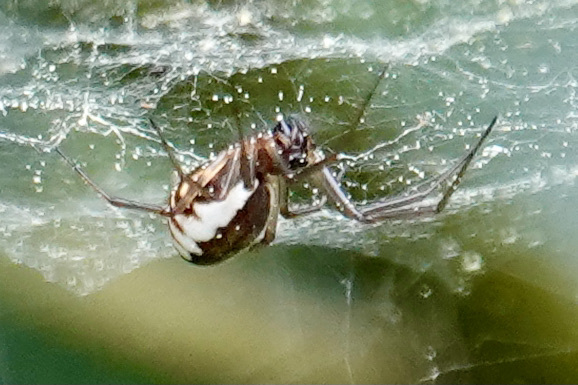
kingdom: Animalia
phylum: Arthropoda
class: Arachnida
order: Araneae
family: Linyphiidae
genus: Frontinella
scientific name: Frontinella pyramitela
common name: Bowl-and-doily spider
